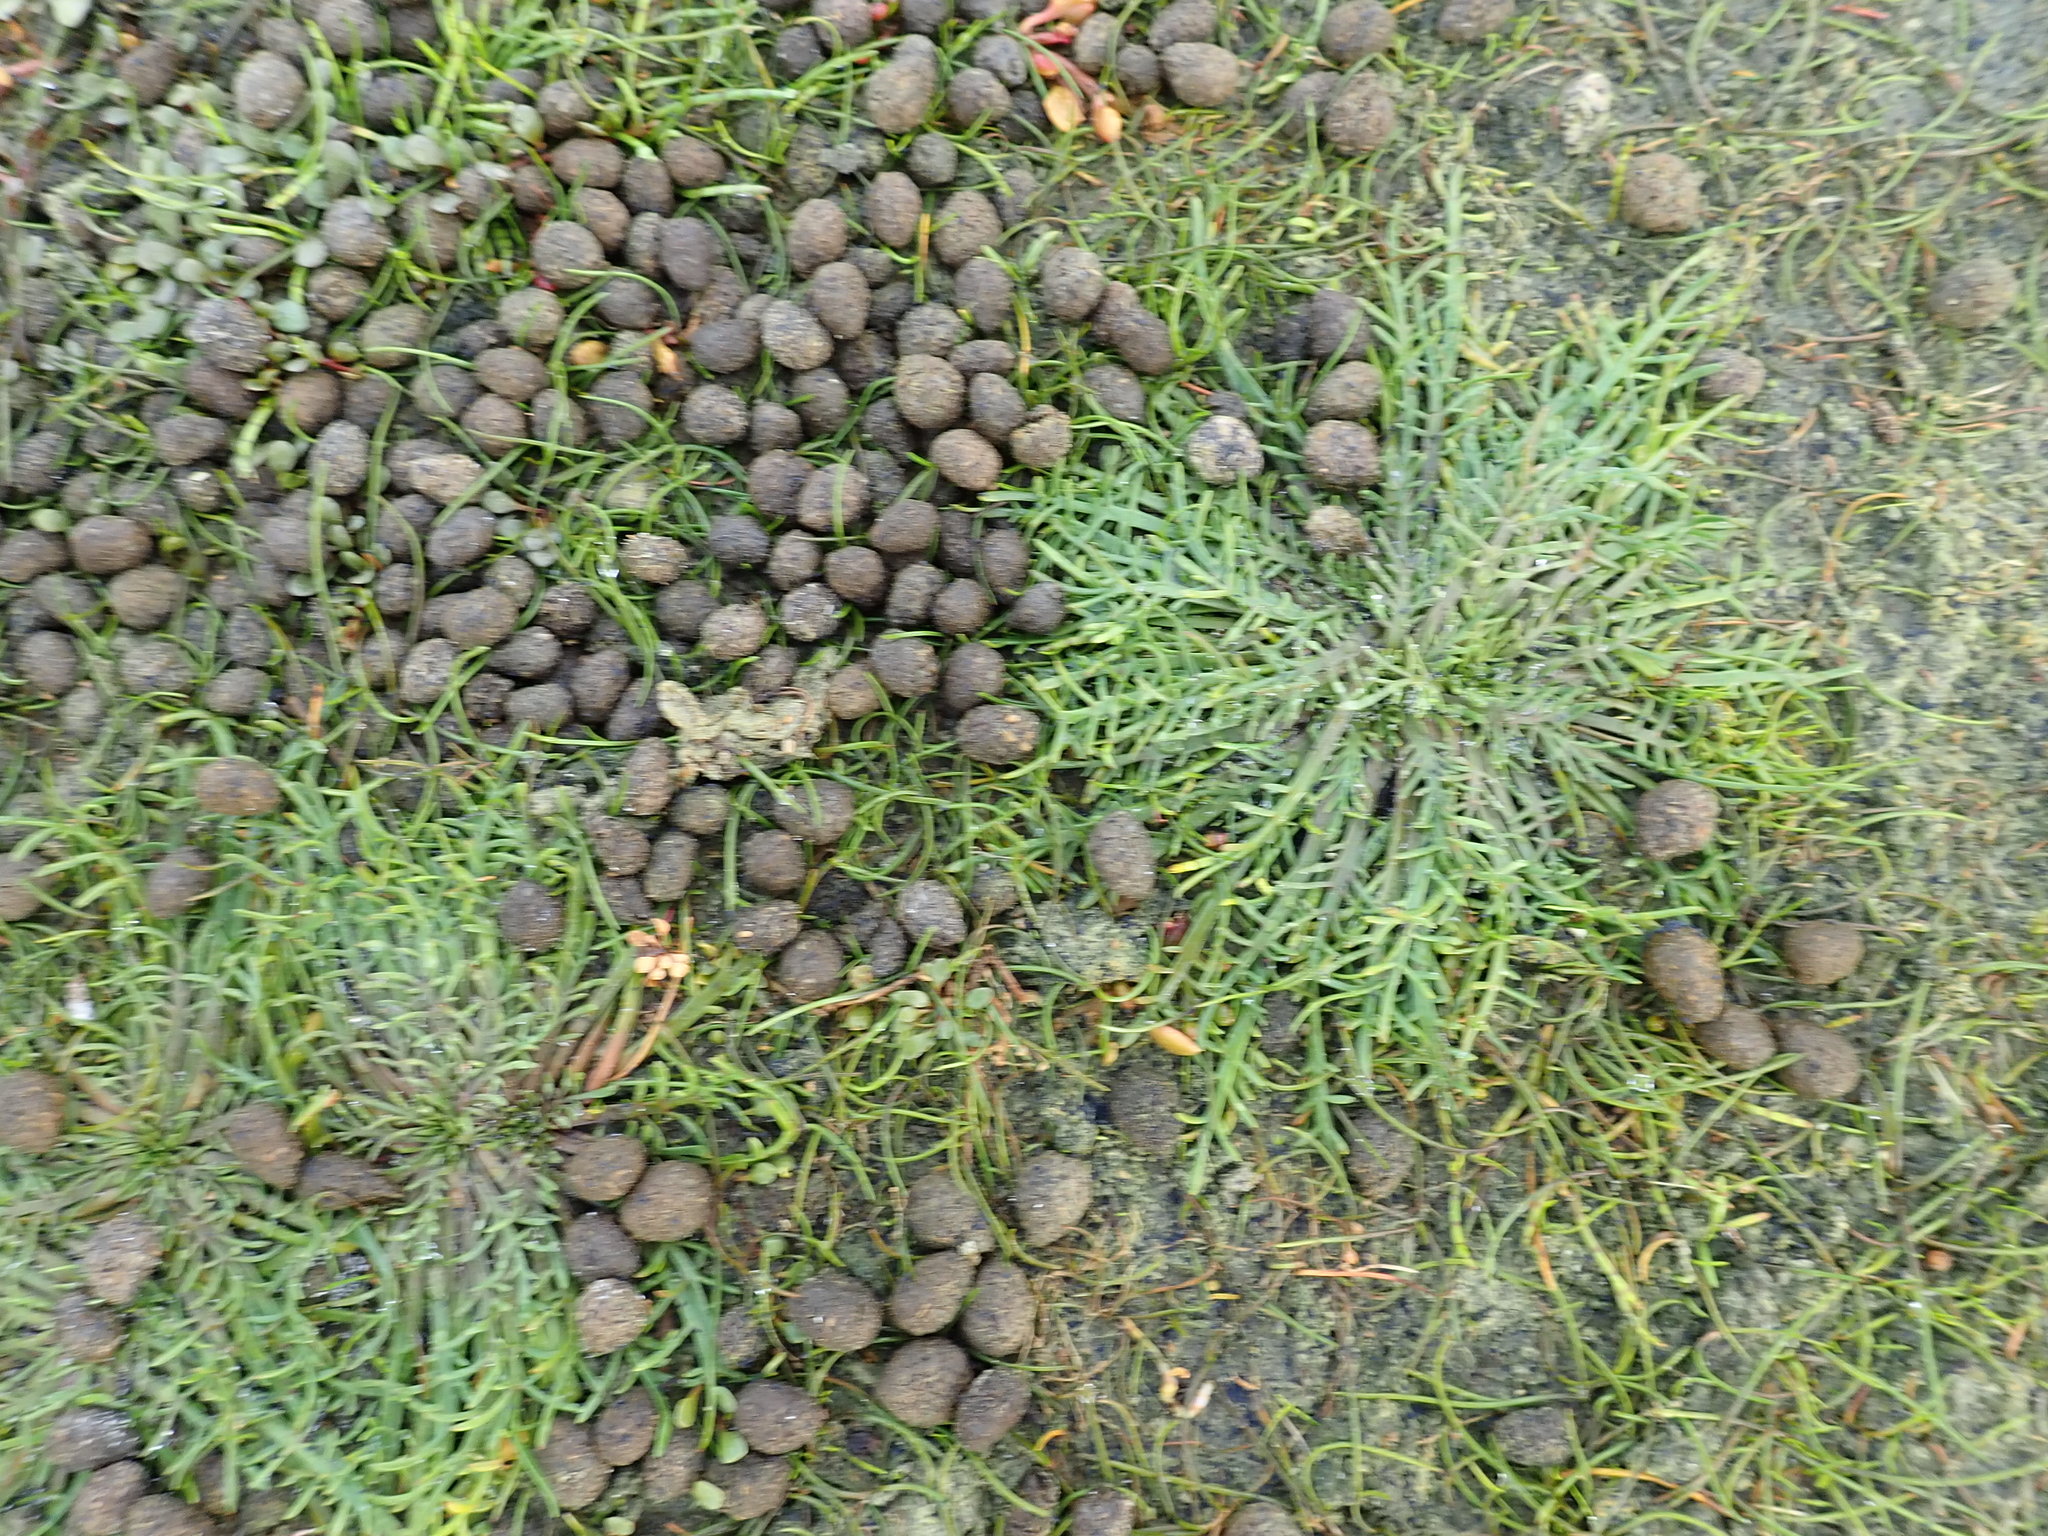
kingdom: Plantae
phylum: Tracheophyta
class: Magnoliopsida
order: Lamiales
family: Plantaginaceae
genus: Plantago
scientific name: Plantago coronopus
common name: Buck's-horn plantain
